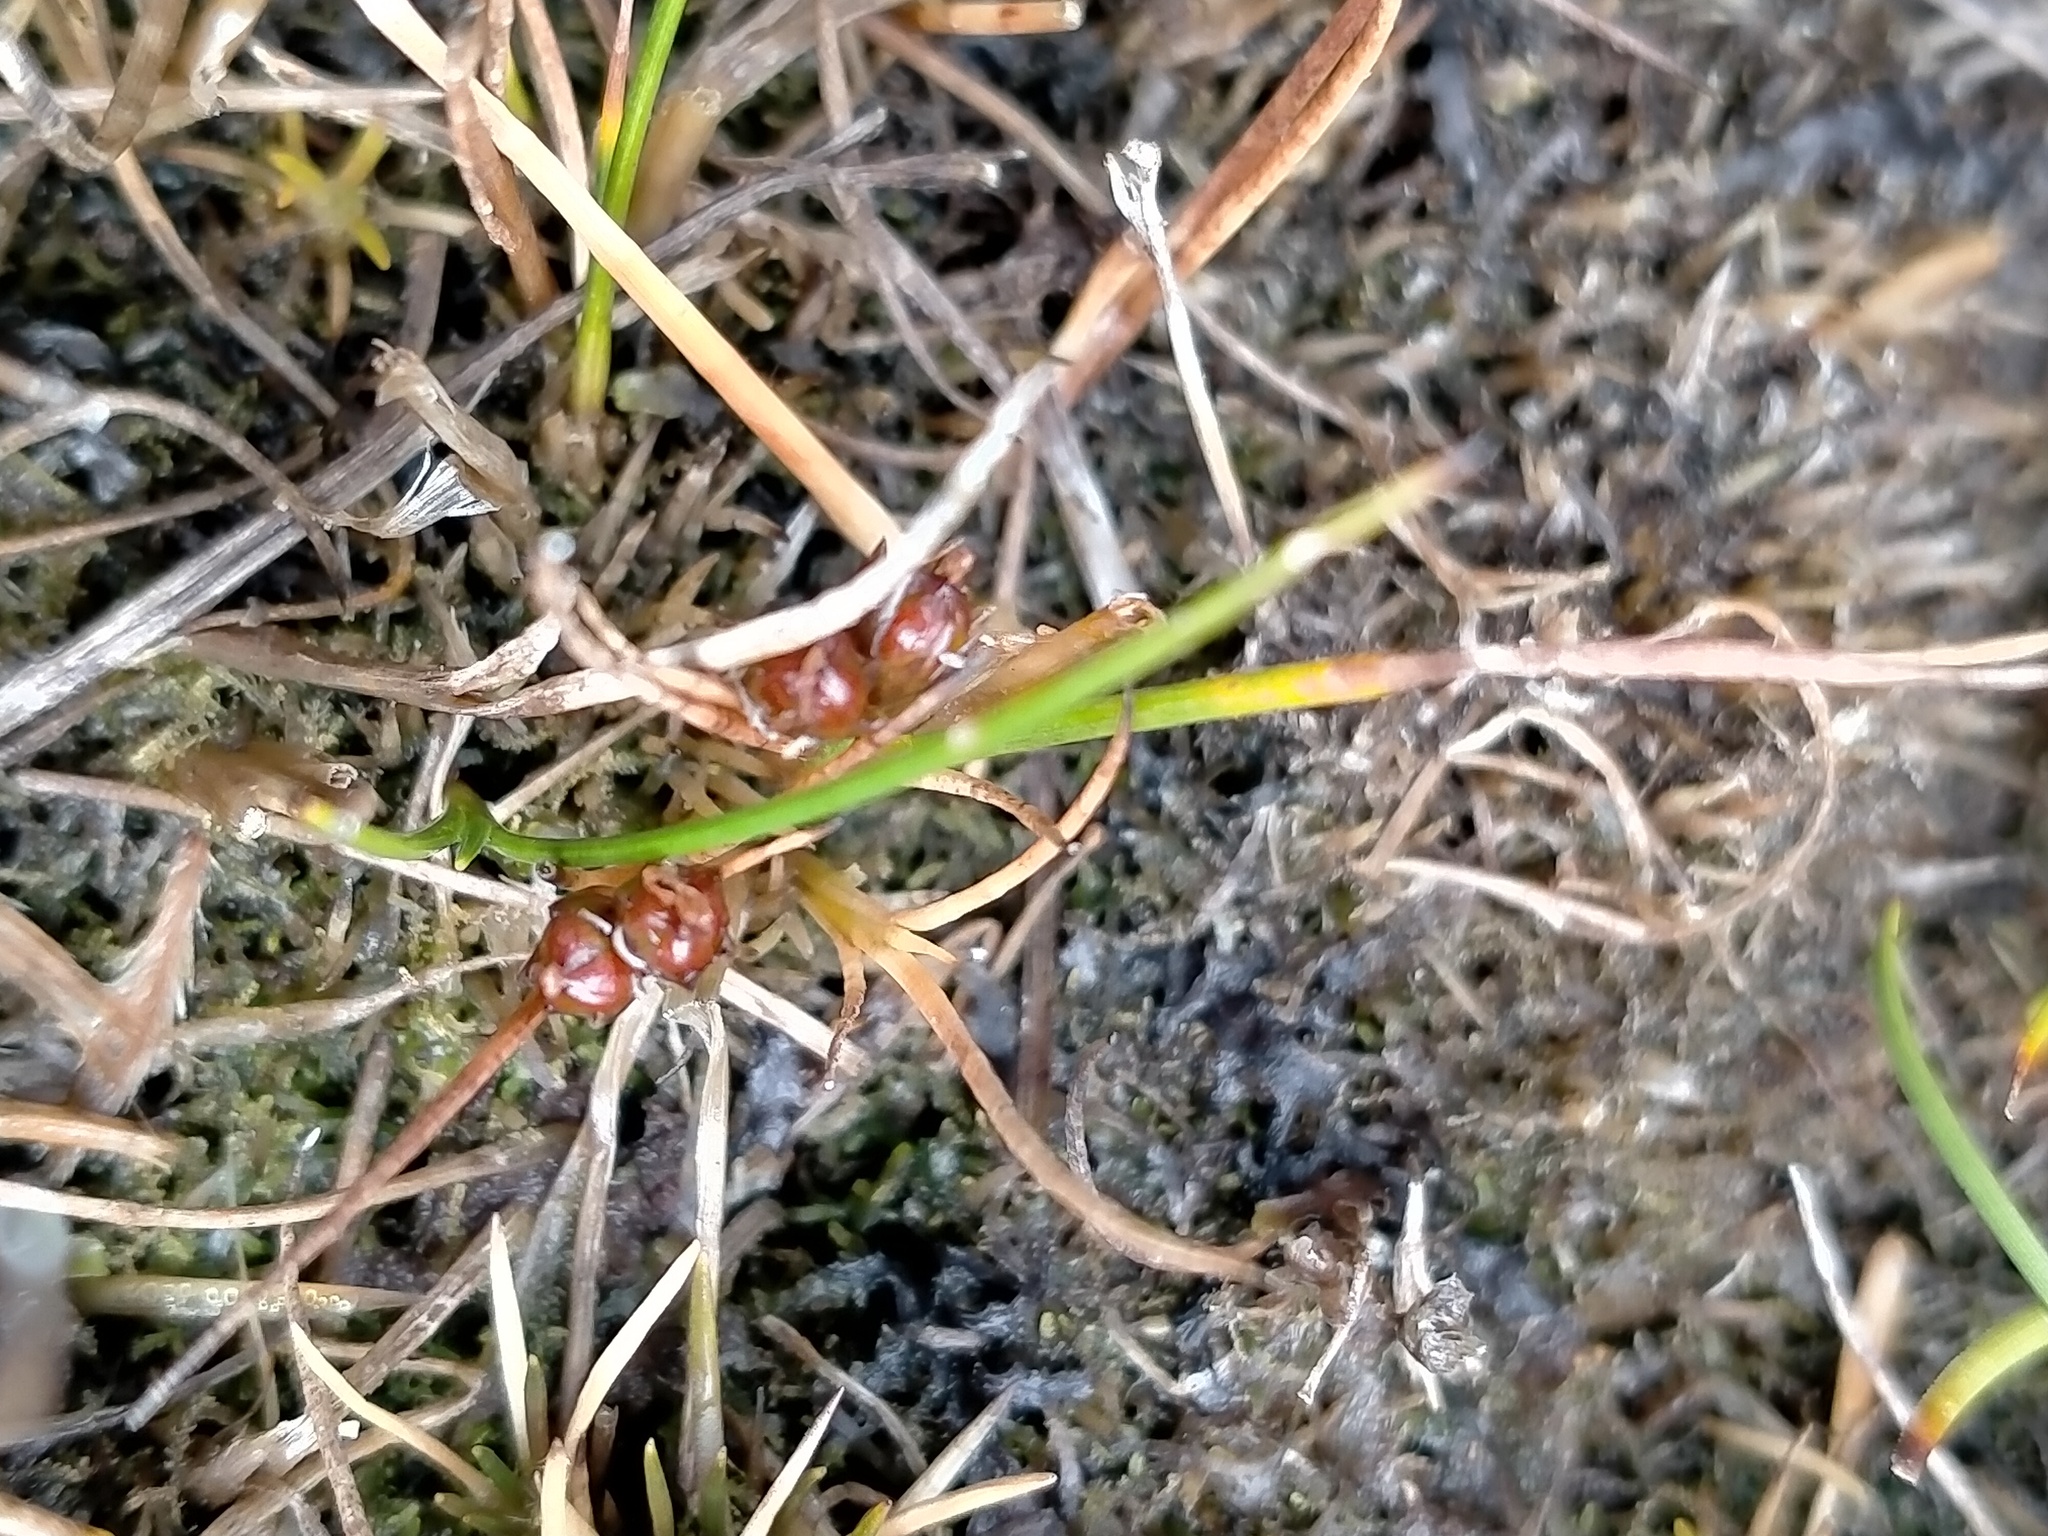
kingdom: Plantae
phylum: Tracheophyta
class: Liliopsida
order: Poales
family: Juncaceae
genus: Juncus
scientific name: Juncus scheuchzerioides
